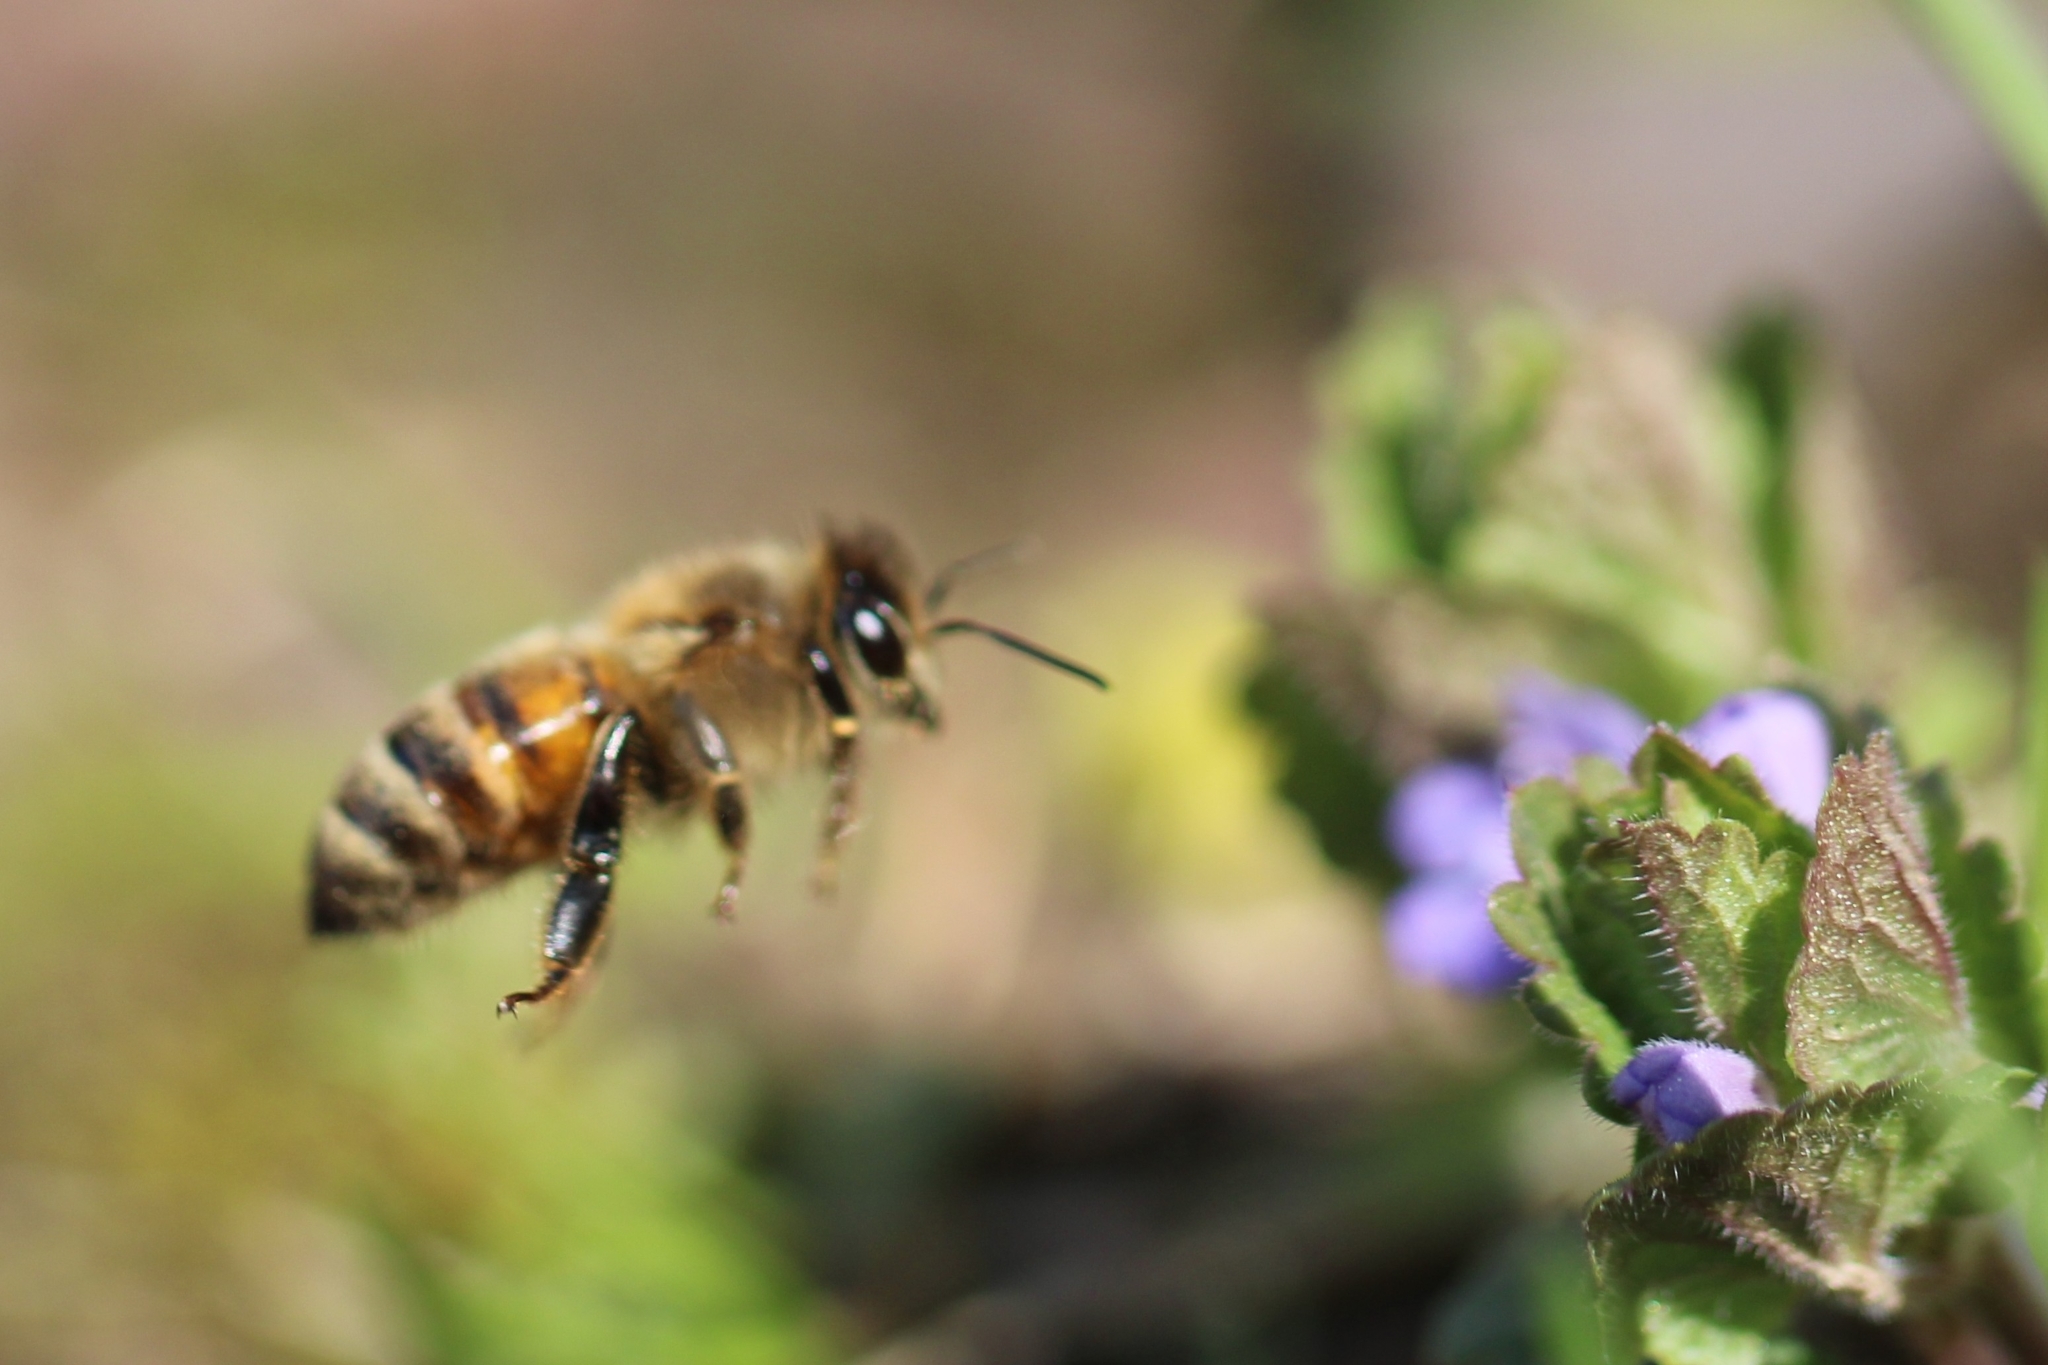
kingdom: Animalia
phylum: Arthropoda
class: Insecta
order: Hymenoptera
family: Apidae
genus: Apis
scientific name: Apis mellifera
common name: Honey bee
